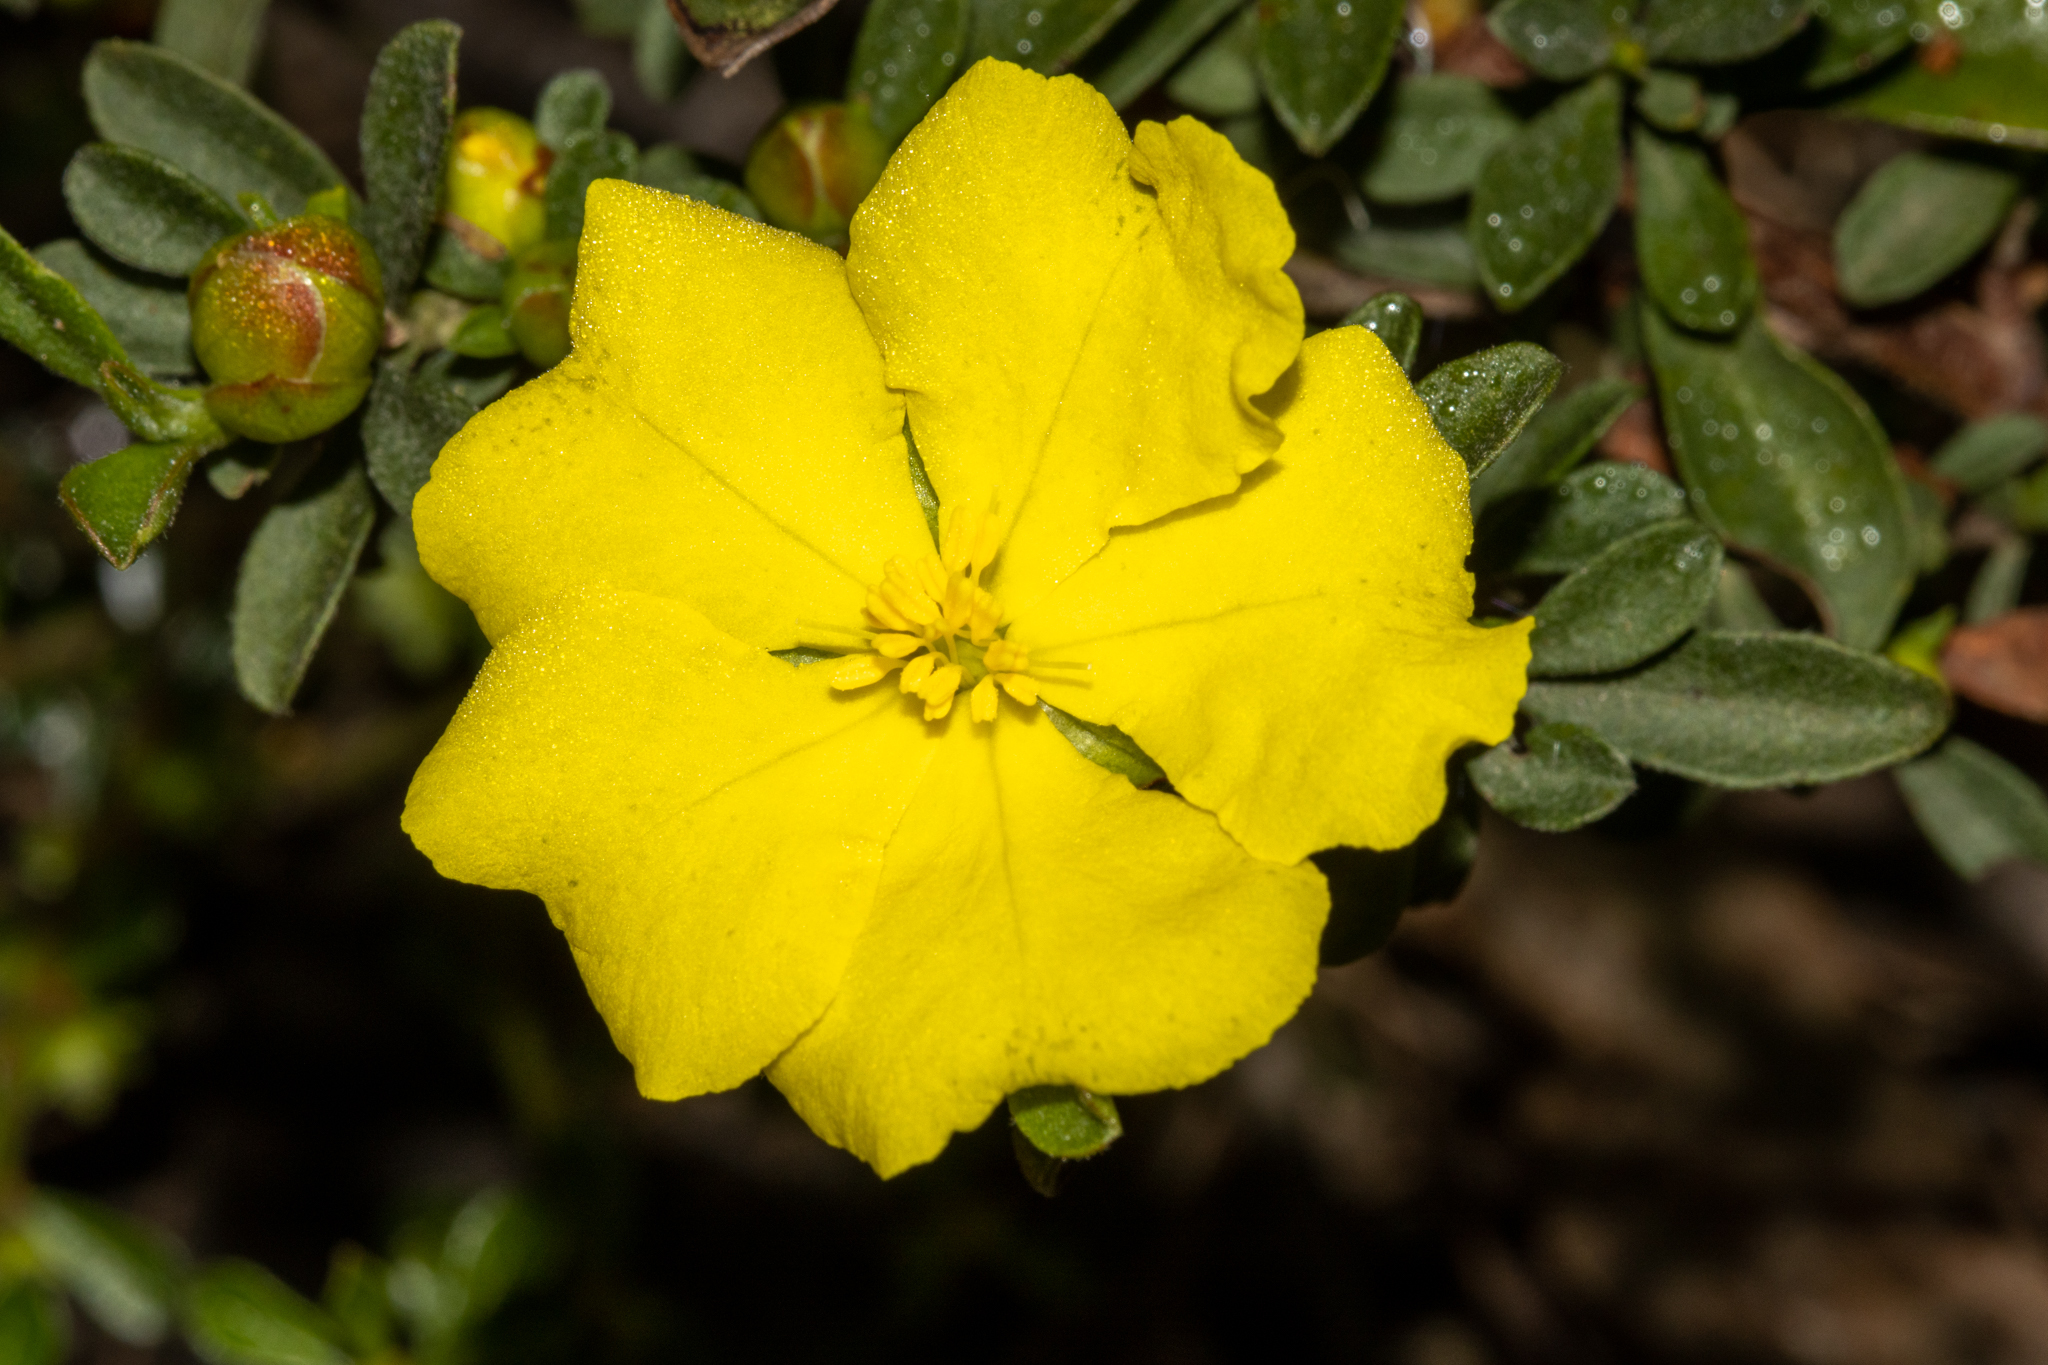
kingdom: Plantae
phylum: Tracheophyta
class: Magnoliopsida
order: Dilleniales
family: Dilleniaceae
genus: Hibbertia
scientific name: Hibbertia obtusifolia
